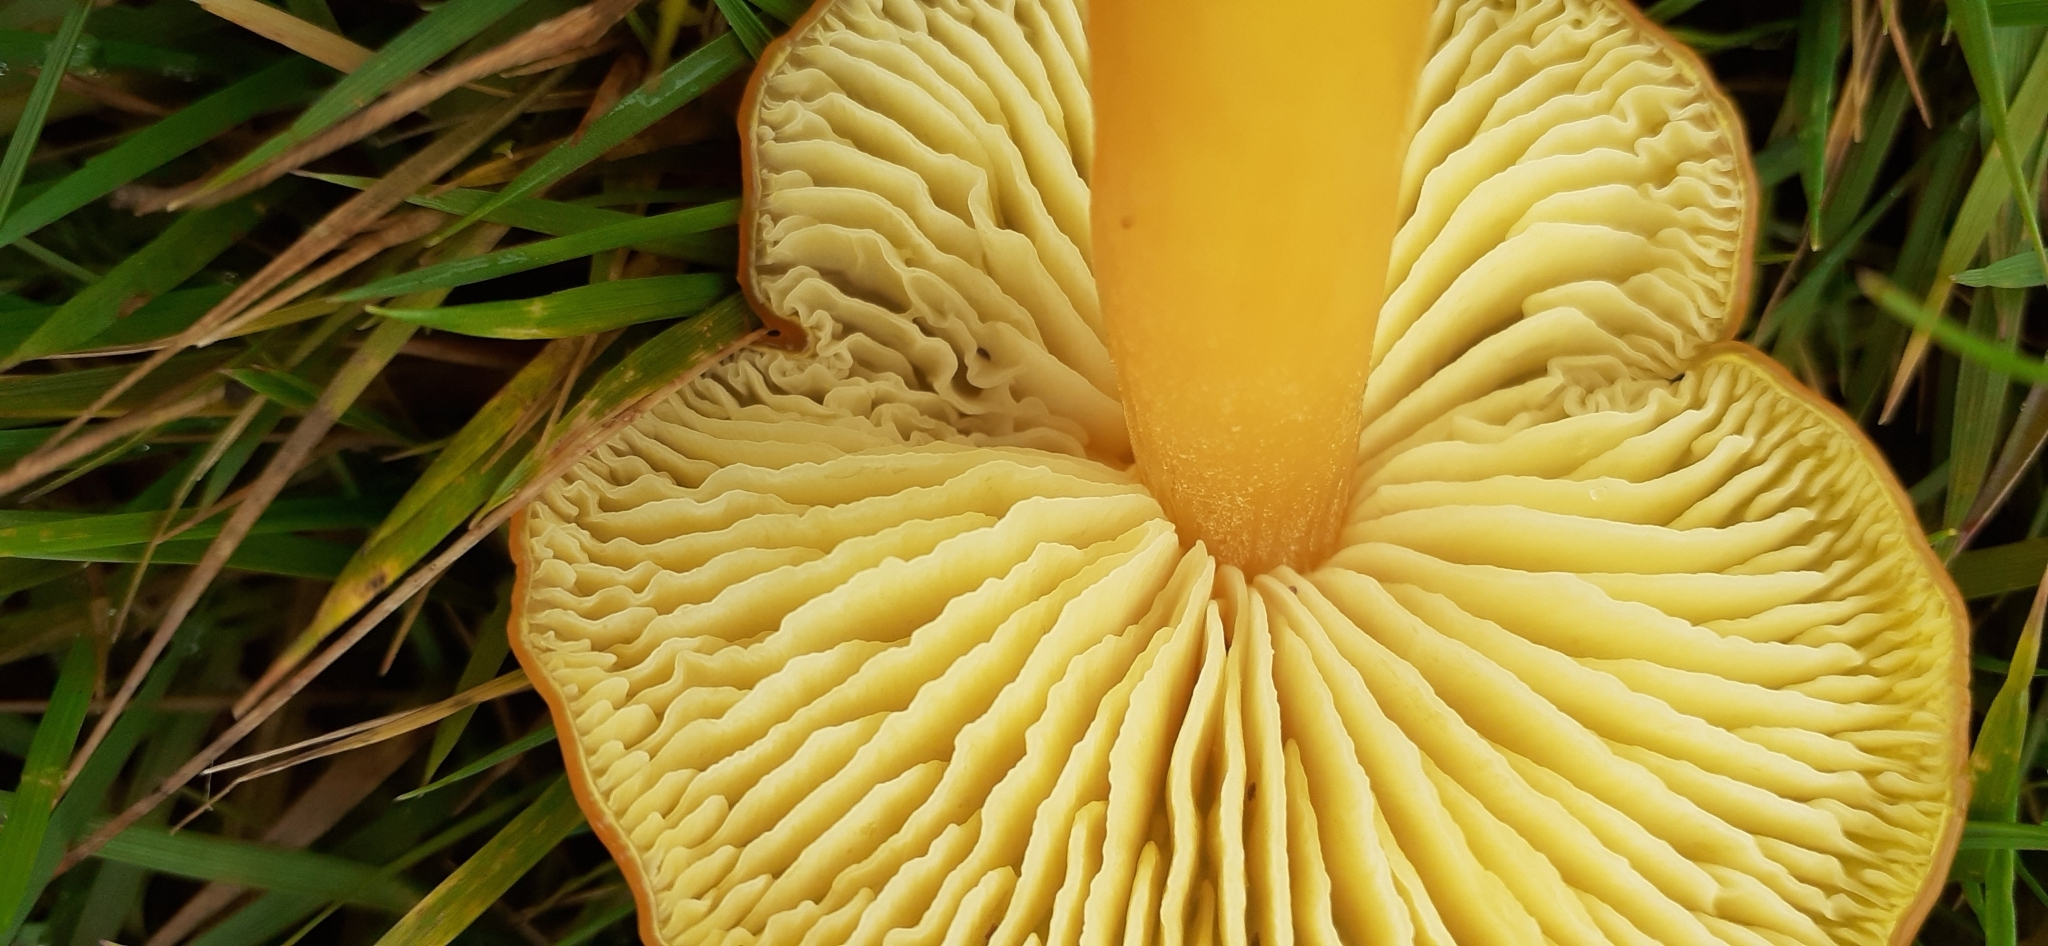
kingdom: Fungi
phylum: Basidiomycota
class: Agaricomycetes
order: Agaricales
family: Hygrophoraceae
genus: Hygrocybe
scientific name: Hygrocybe chlorophana
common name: Golden waxcap
